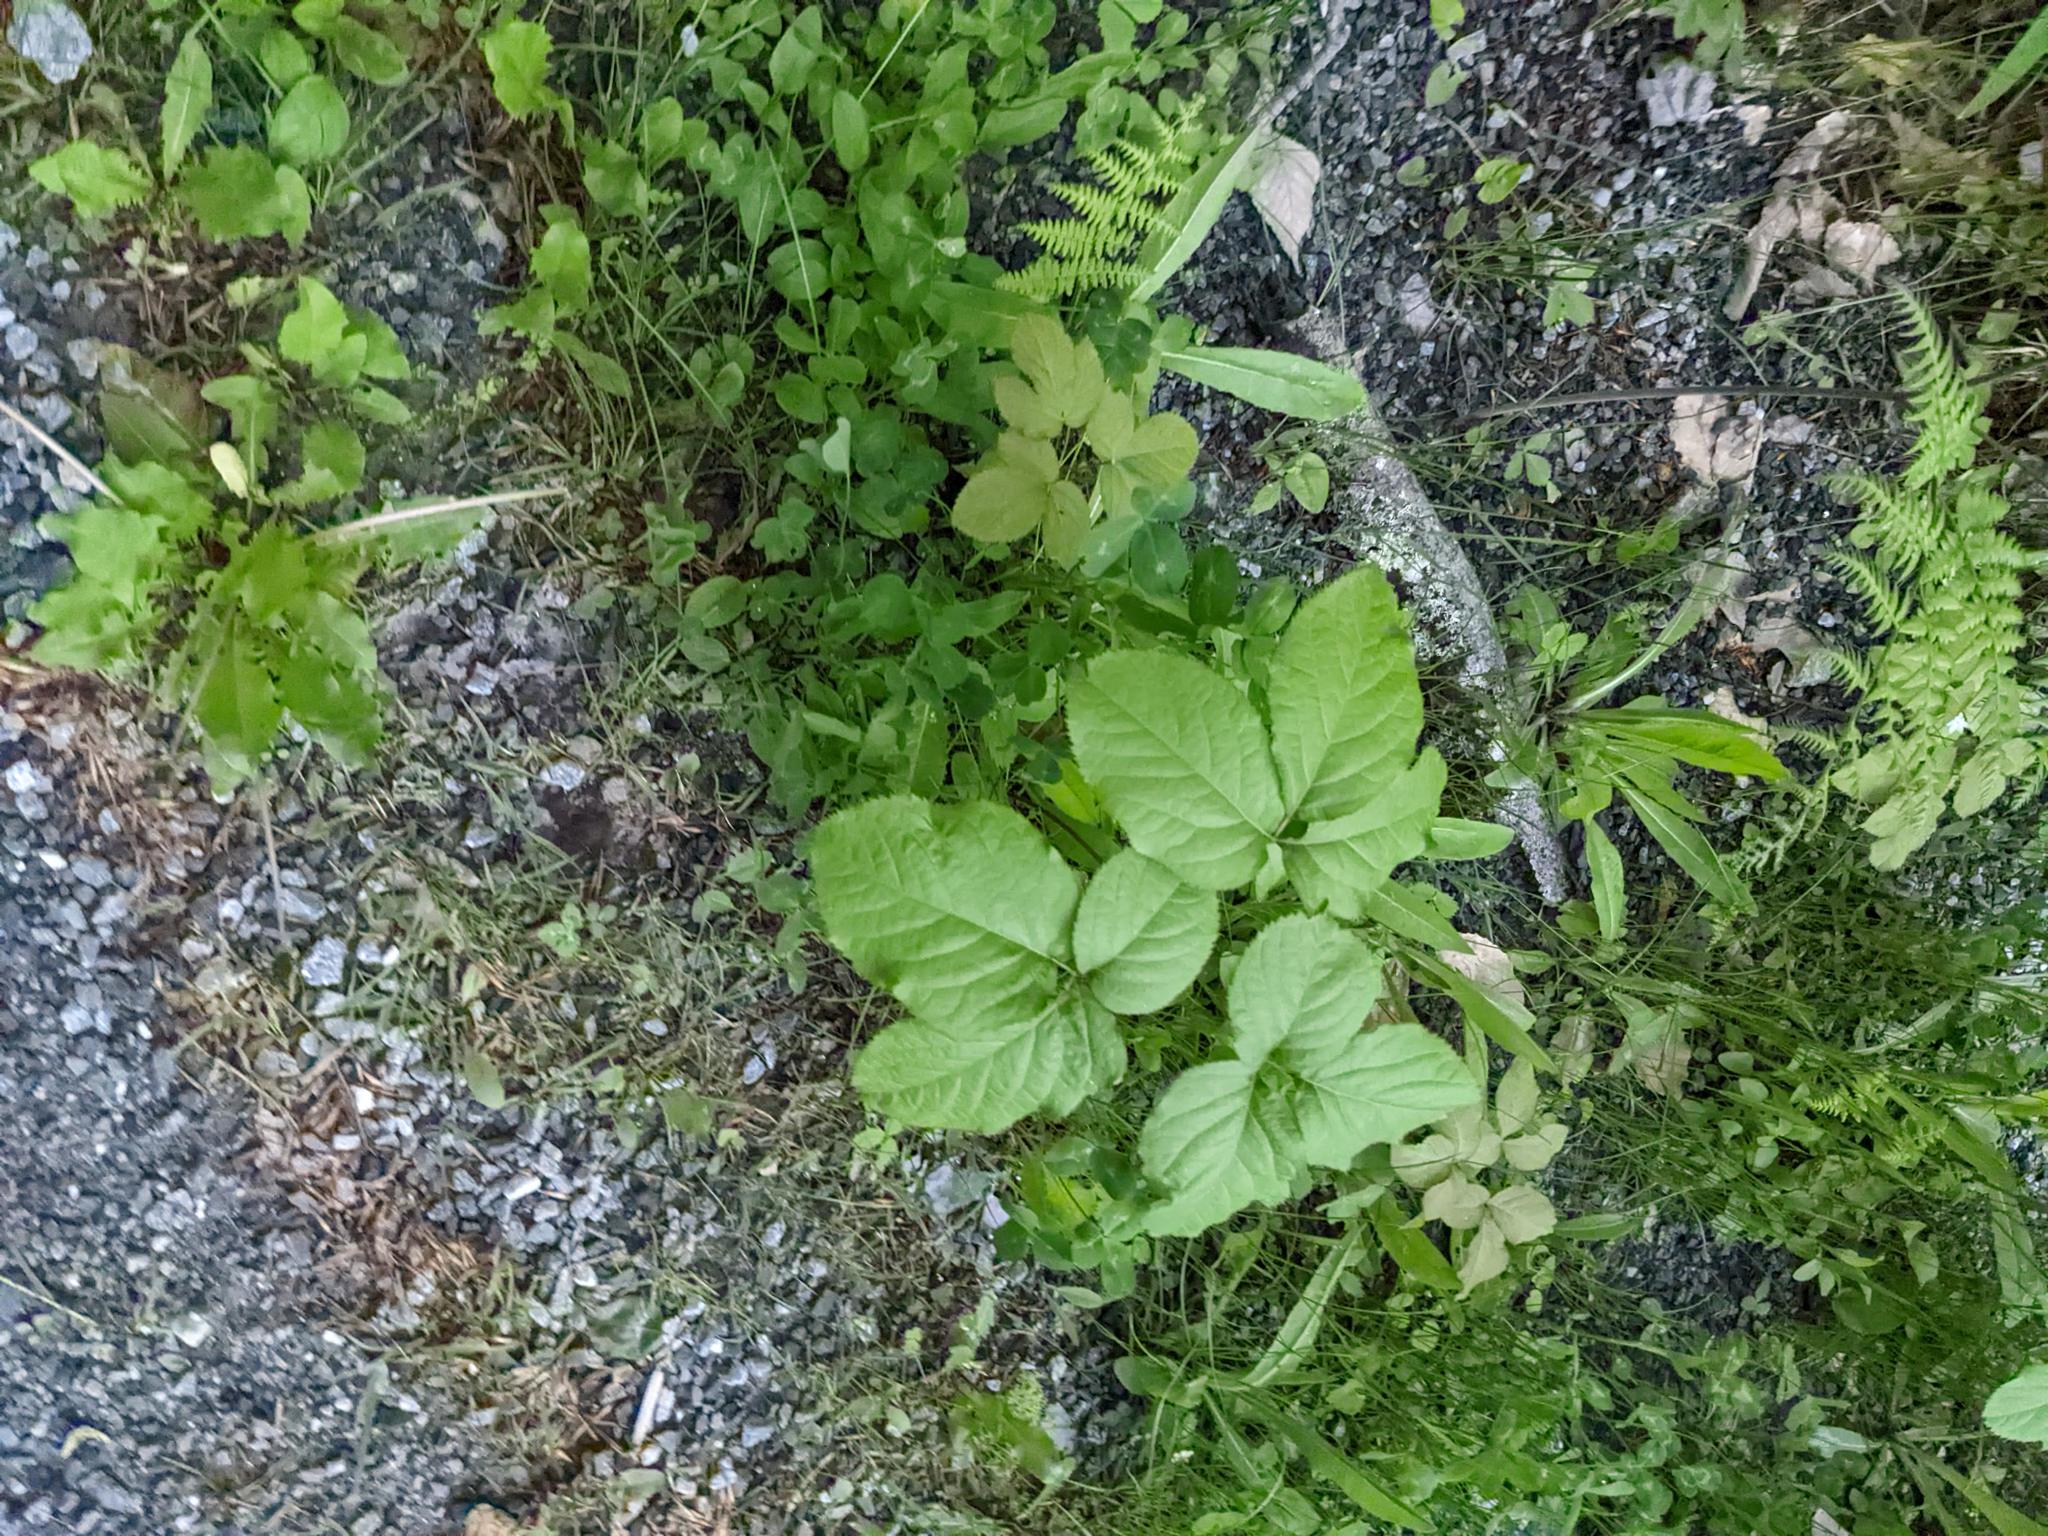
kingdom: Plantae
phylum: Tracheophyta
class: Magnoliopsida
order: Apiales
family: Araliaceae
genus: Aralia
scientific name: Aralia nudicaulis
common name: Wild sarsaparilla
